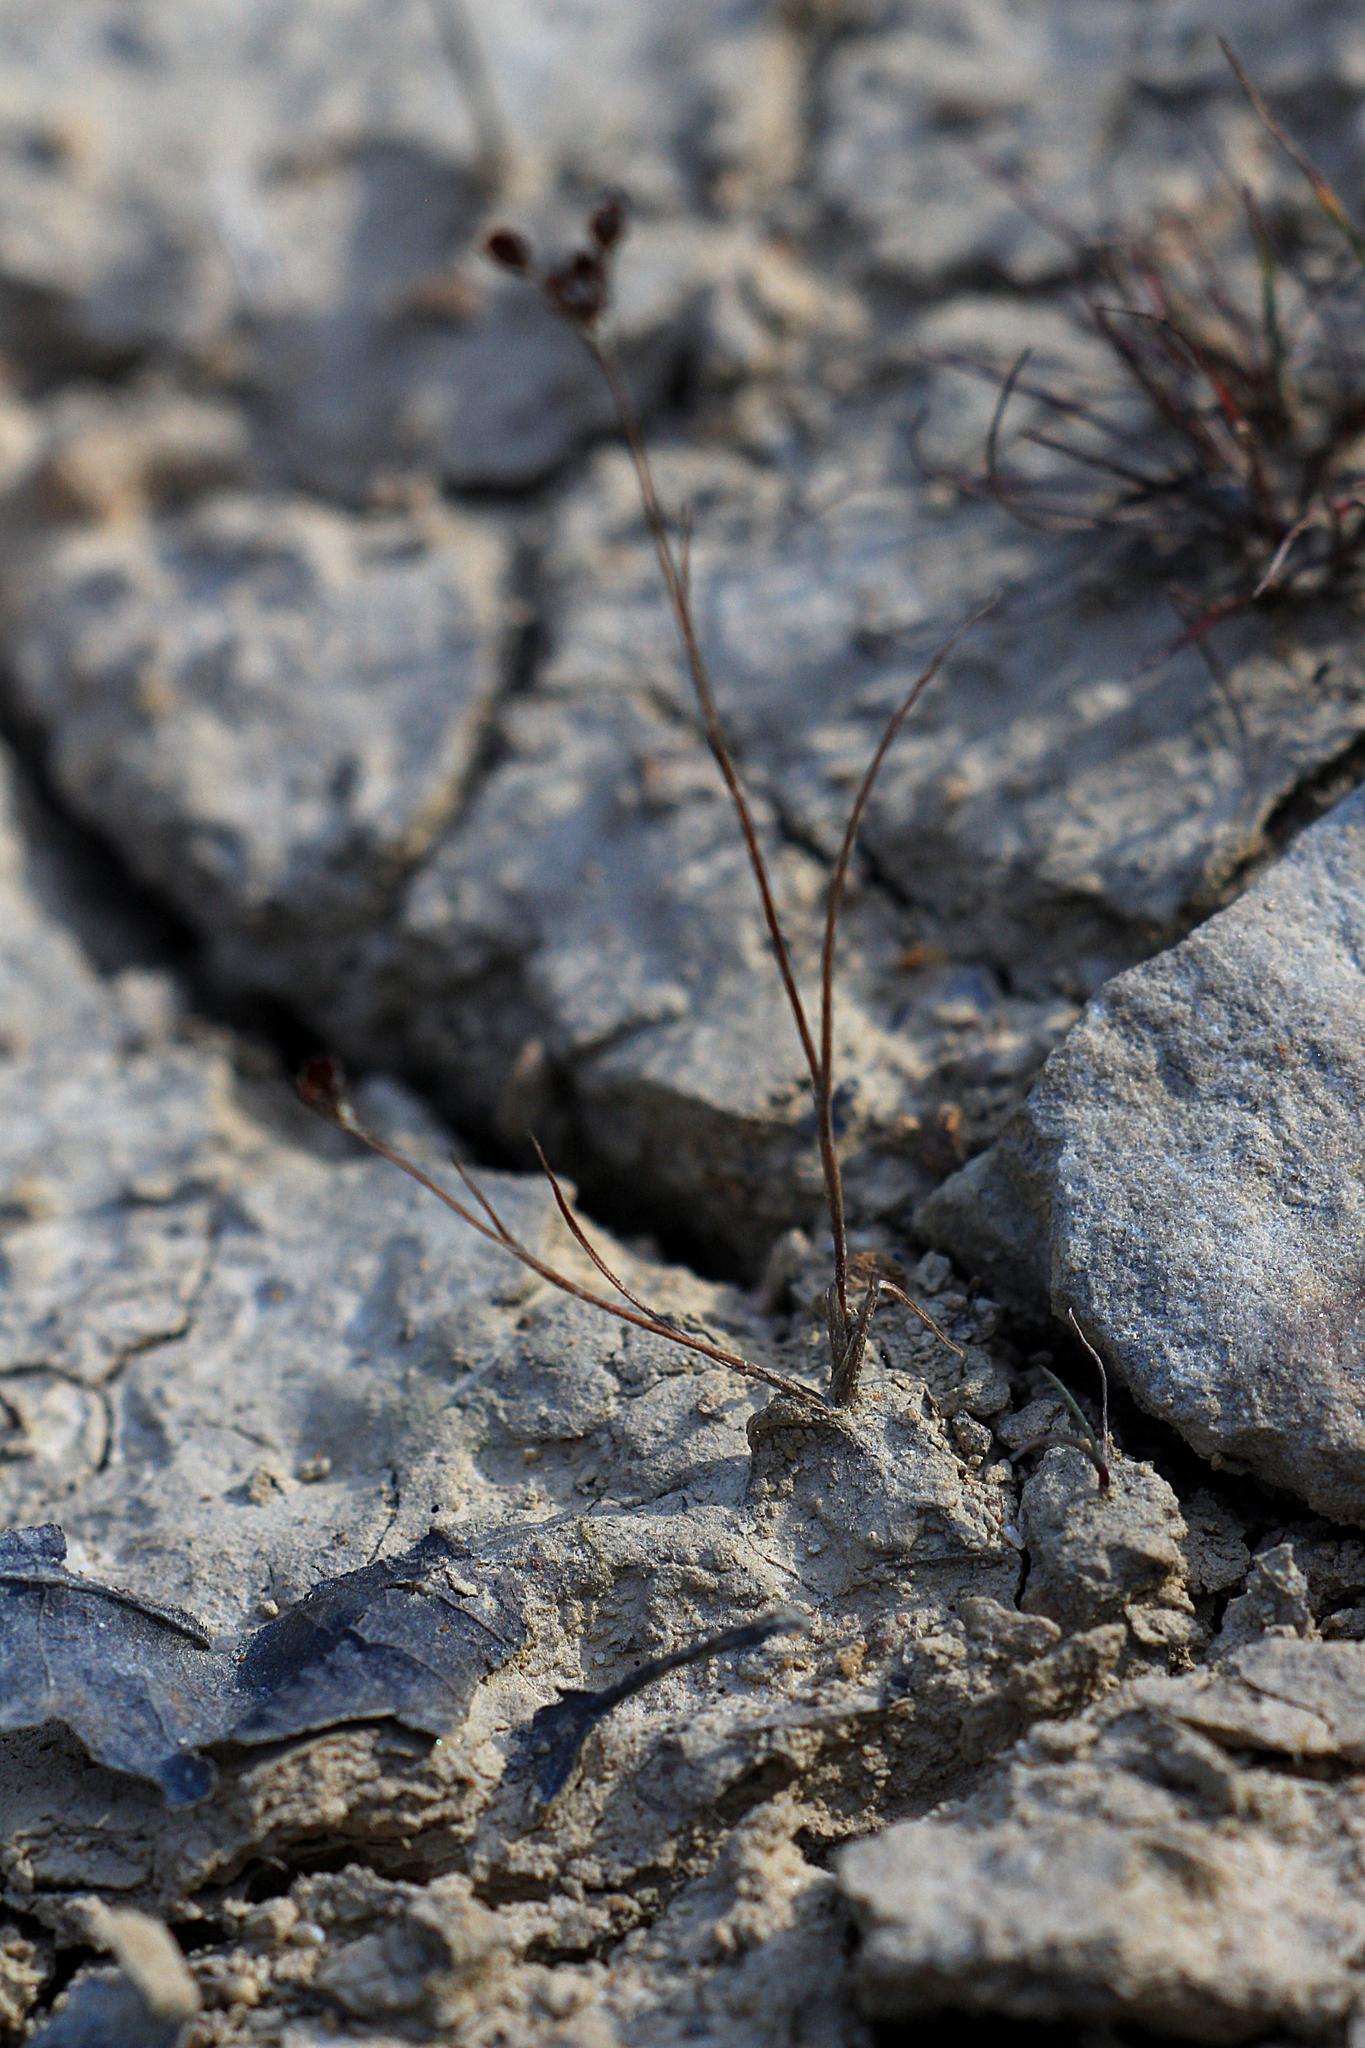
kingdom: Plantae
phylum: Tracheophyta
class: Liliopsida
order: Poales
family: Juncaceae
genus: Juncus
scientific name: Juncus tenageia
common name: Sand rush
